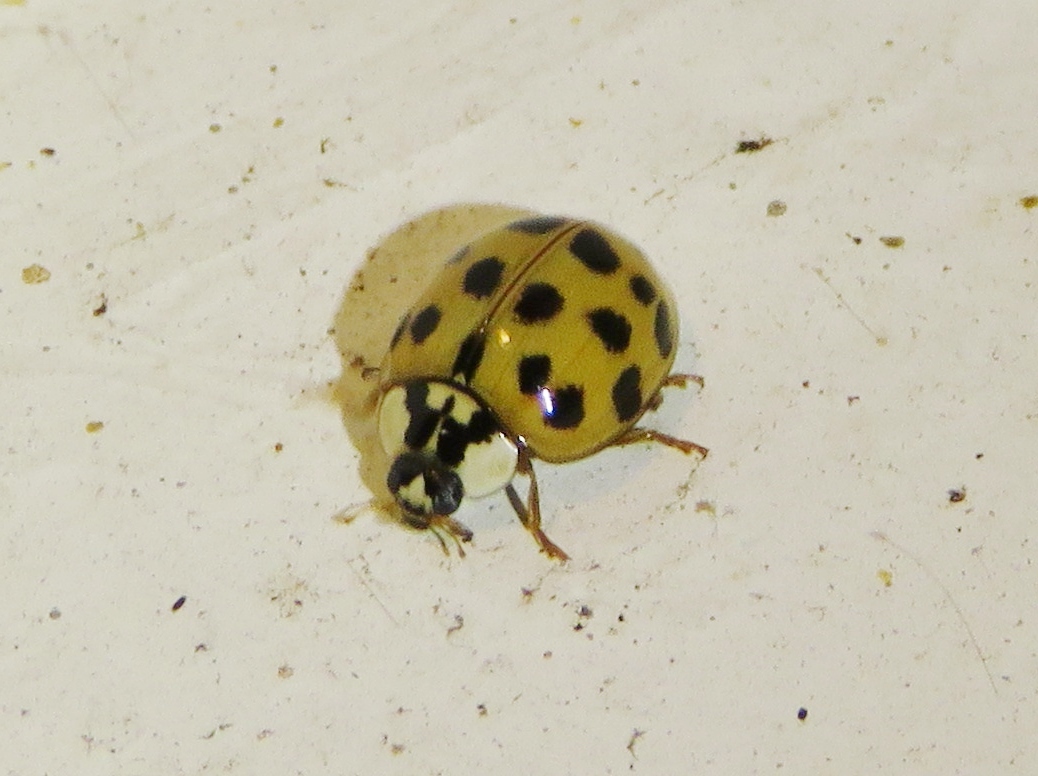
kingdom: Animalia
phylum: Arthropoda
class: Insecta
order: Coleoptera
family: Coccinellidae
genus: Harmonia
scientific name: Harmonia axyridis
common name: Harlequin ladybird
